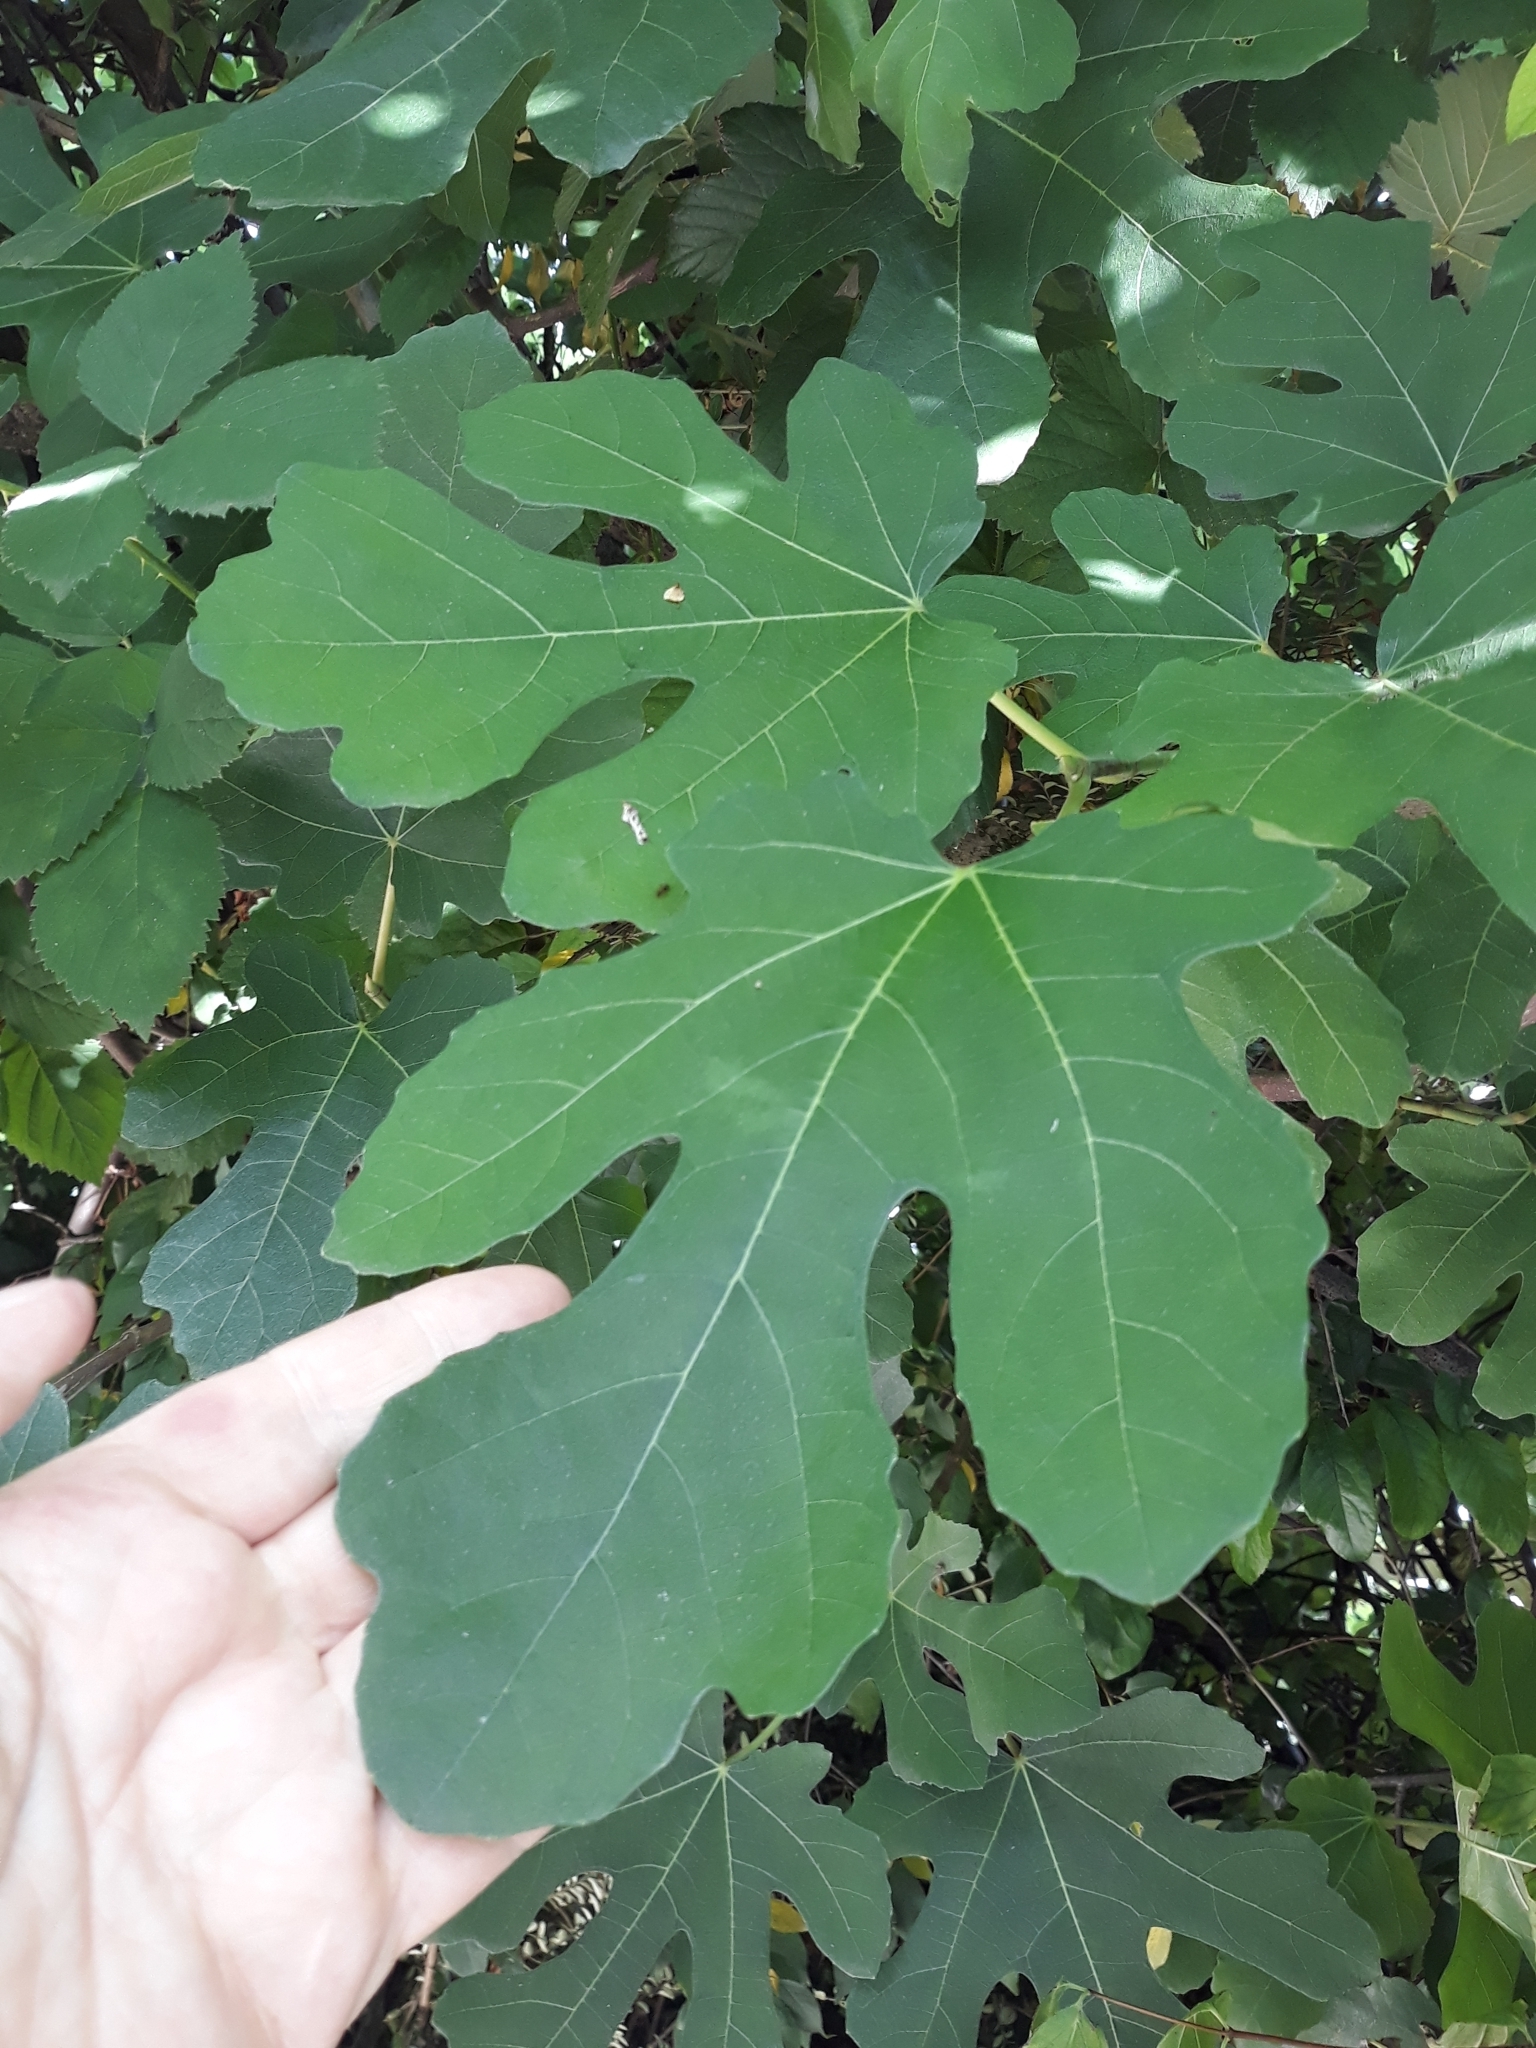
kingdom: Plantae
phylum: Tracheophyta
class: Magnoliopsida
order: Rosales
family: Moraceae
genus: Ficus
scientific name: Ficus carica
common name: Fig
